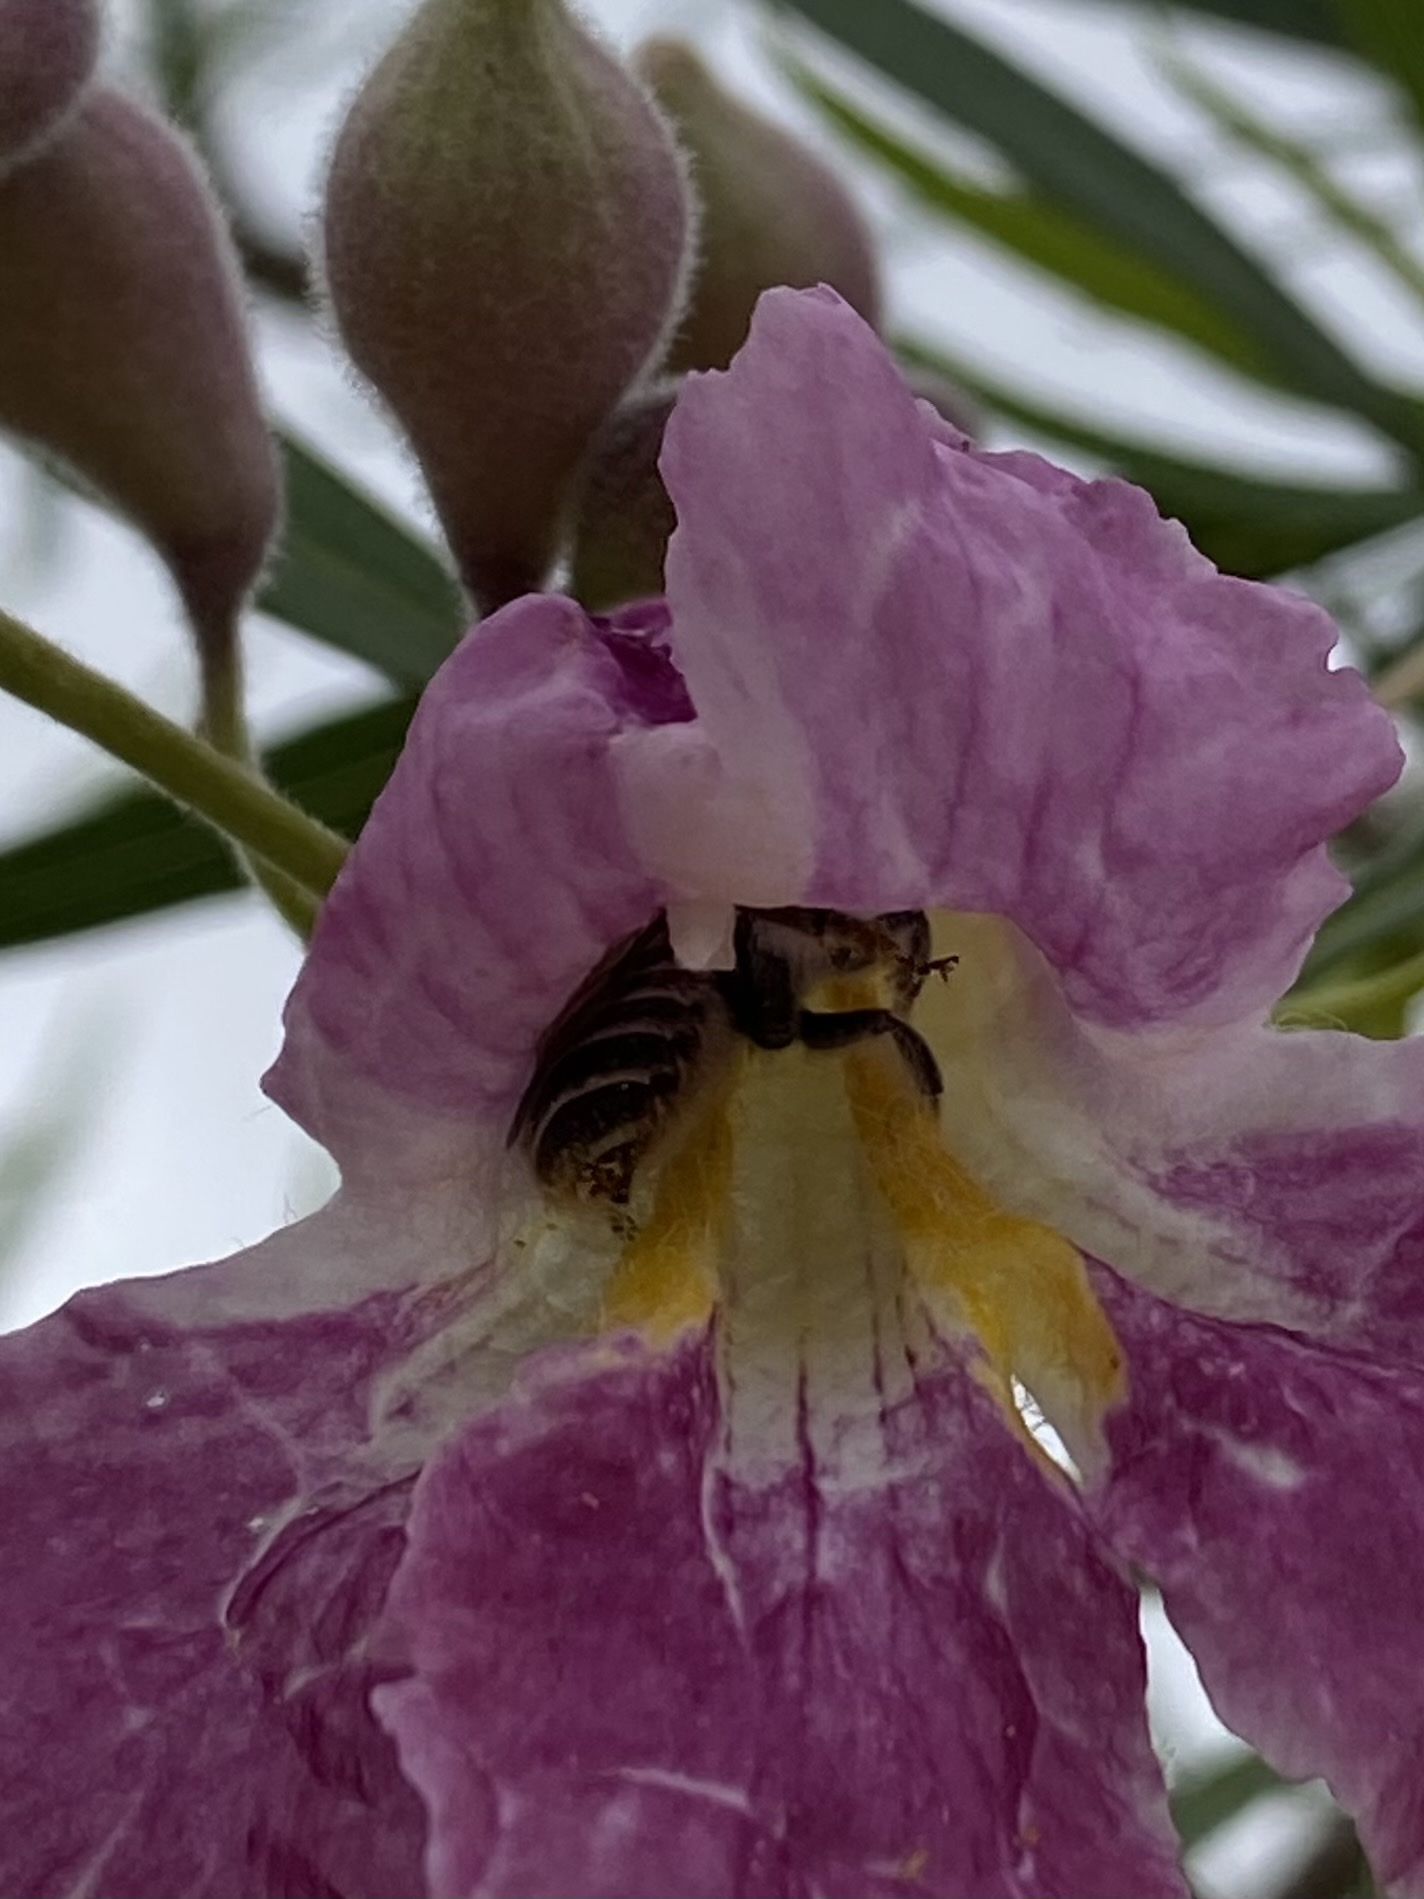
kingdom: Animalia
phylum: Arthropoda
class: Insecta
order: Hymenoptera
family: Megachilidae
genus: Lithurgopsis
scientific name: Lithurgopsis apicalis
